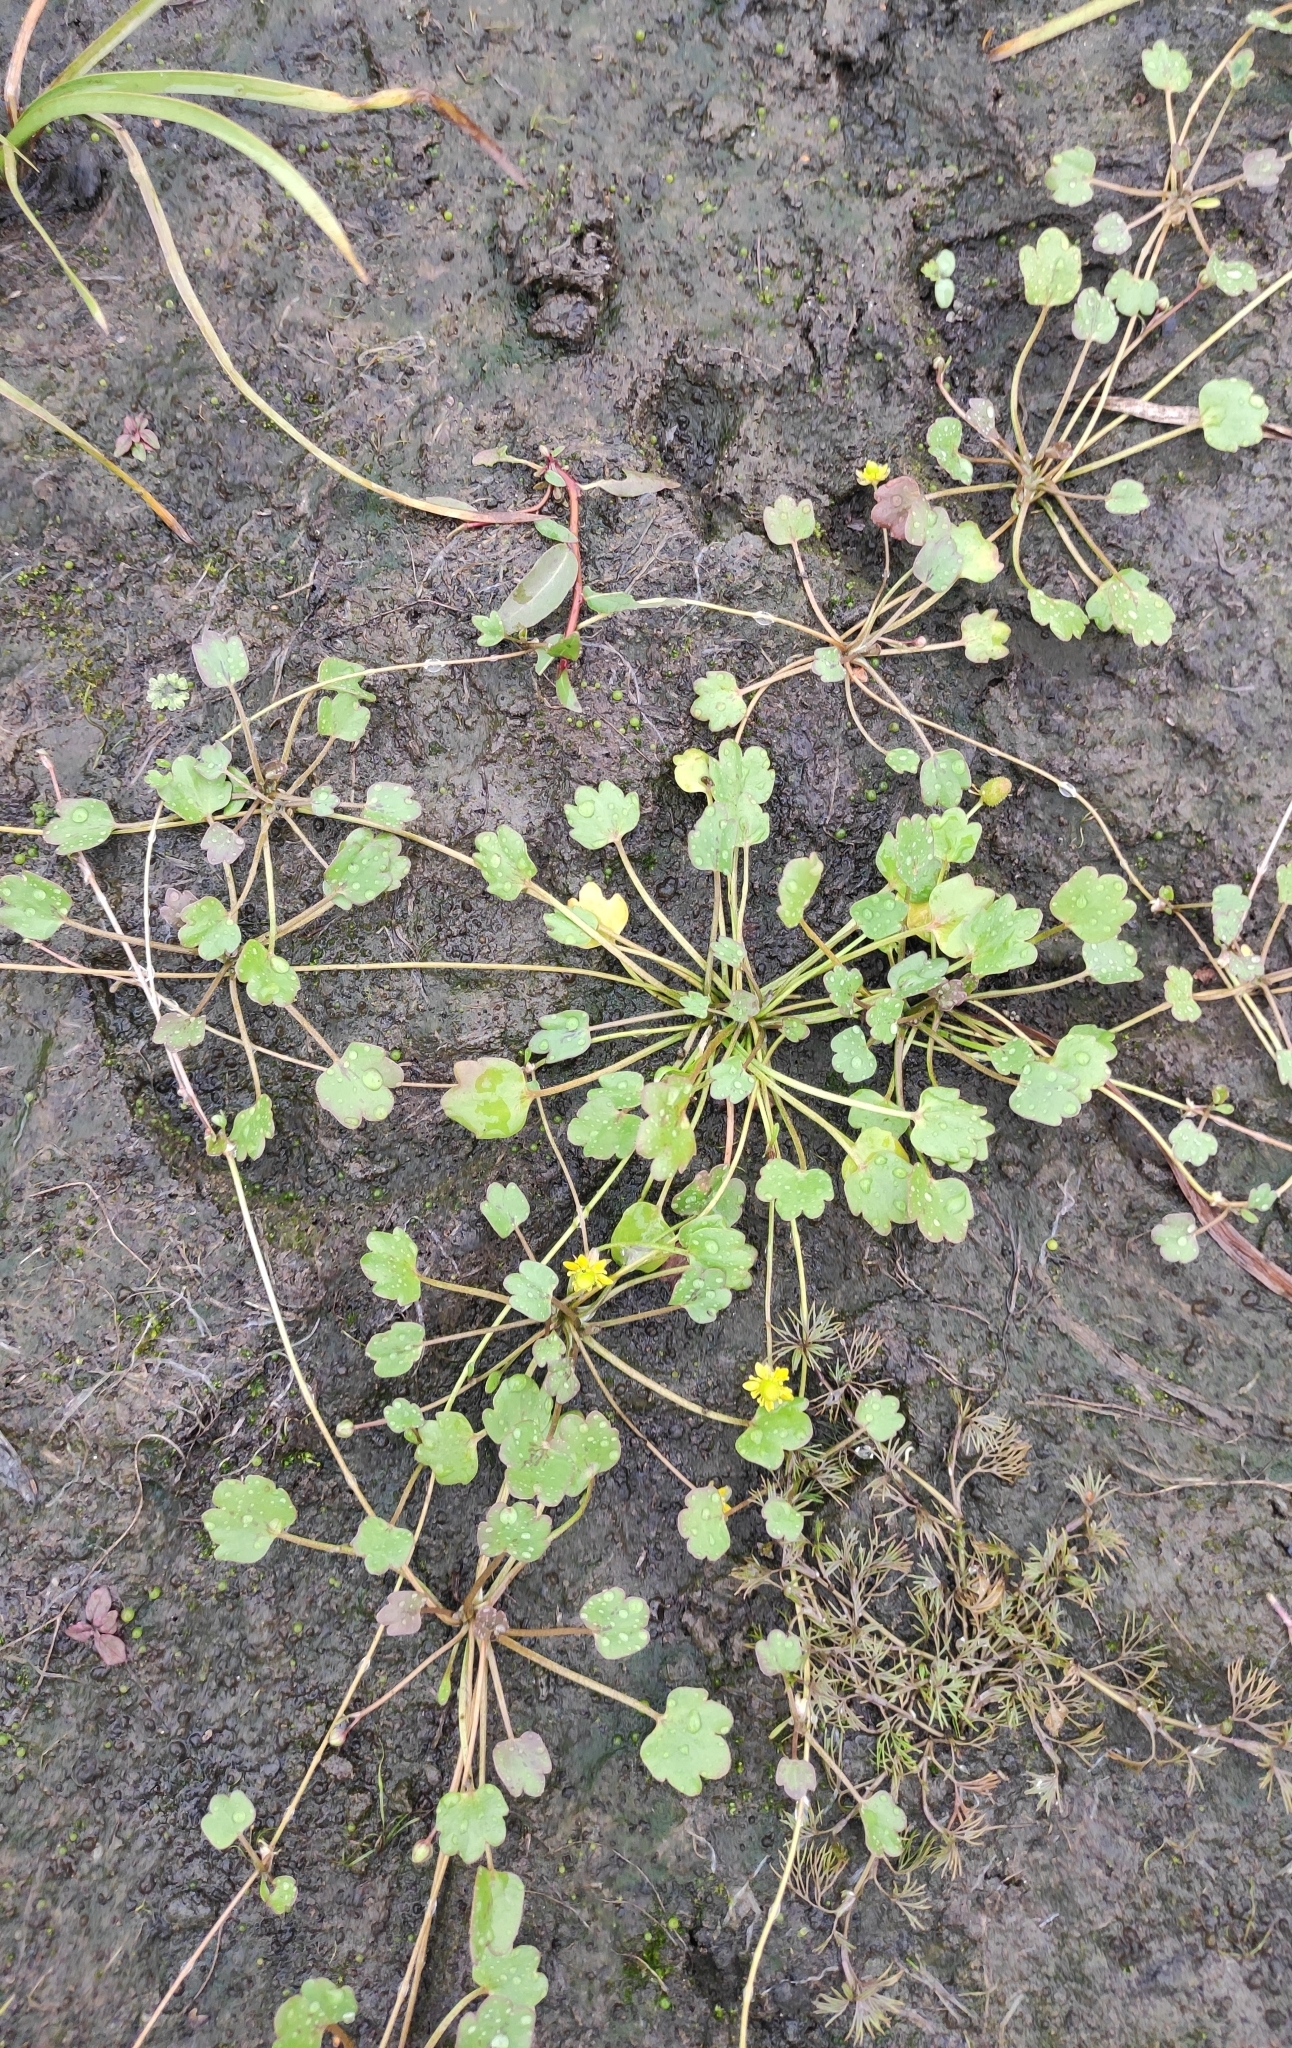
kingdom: Plantae
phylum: Tracheophyta
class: Magnoliopsida
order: Ranunculales
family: Ranunculaceae
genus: Halerpestes
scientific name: Halerpestes sarmentosus
